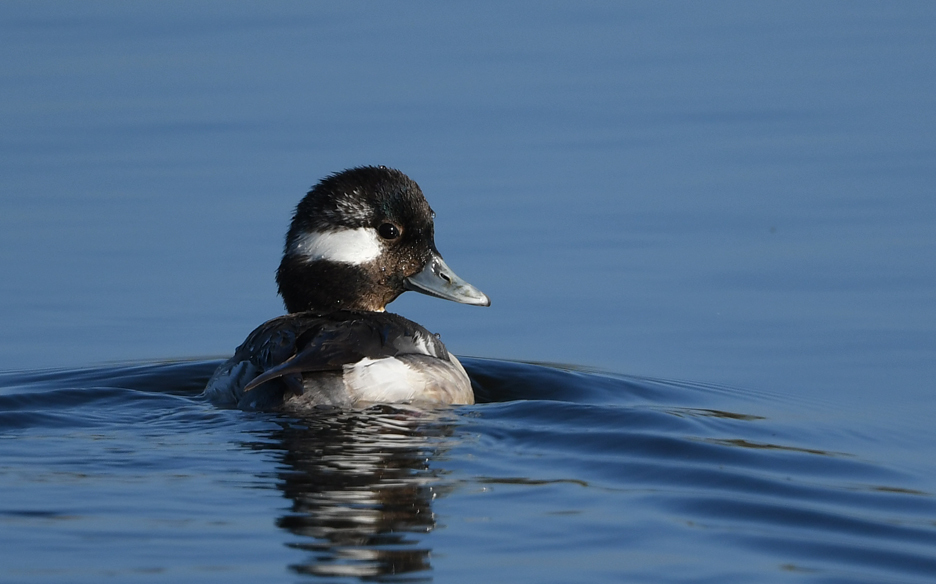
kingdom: Animalia
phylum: Chordata
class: Aves
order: Anseriformes
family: Anatidae
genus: Bucephala
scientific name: Bucephala albeola
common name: Bufflehead
